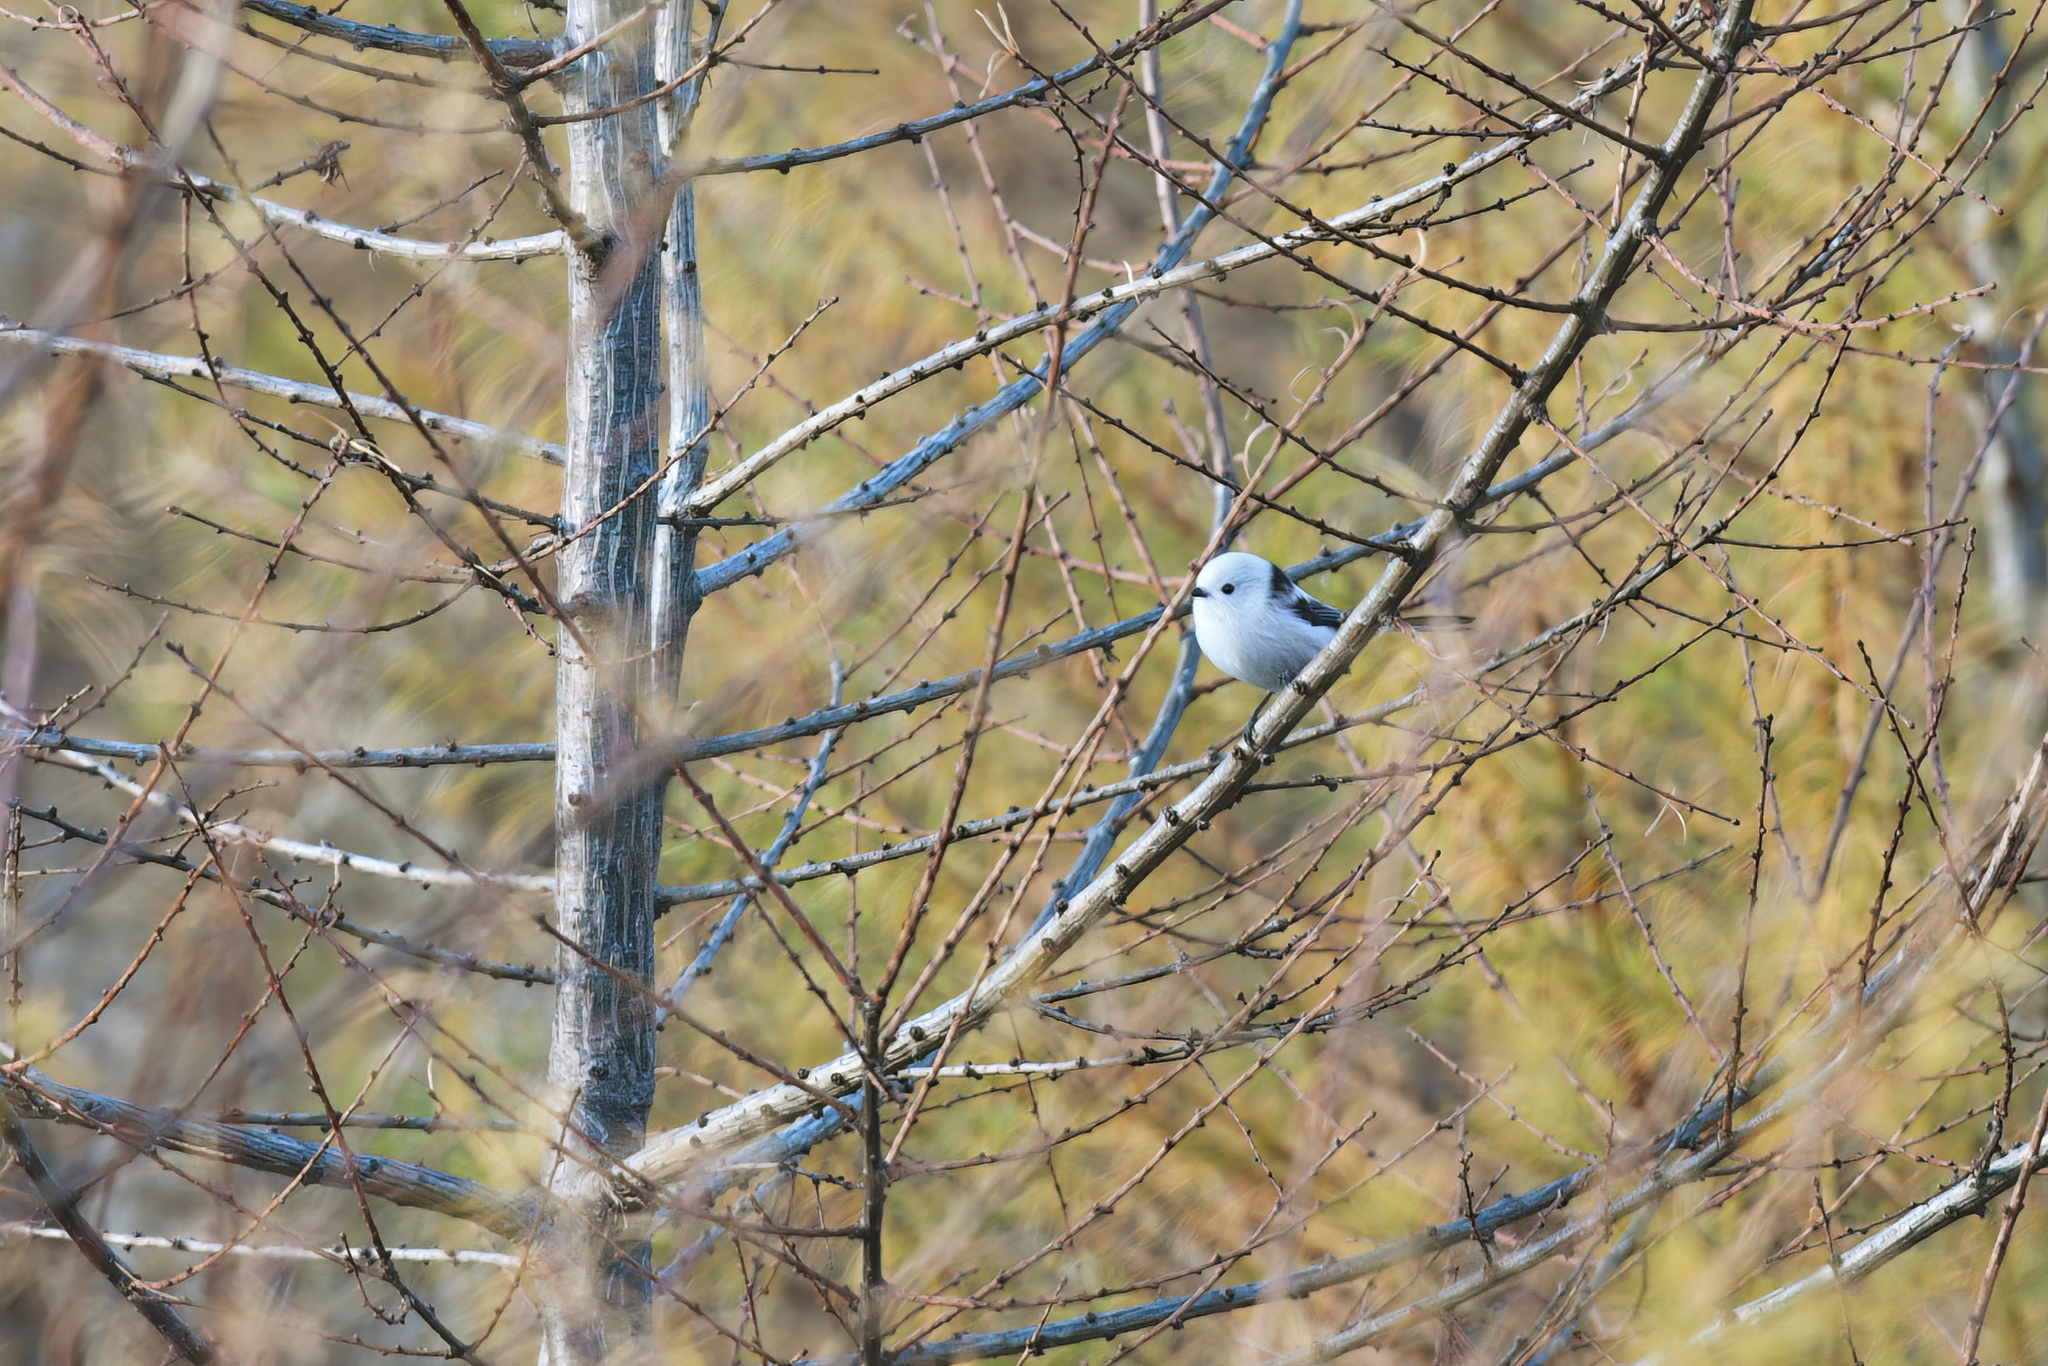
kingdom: Animalia
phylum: Chordata
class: Aves
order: Passeriformes
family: Aegithalidae
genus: Aegithalos
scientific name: Aegithalos caudatus
